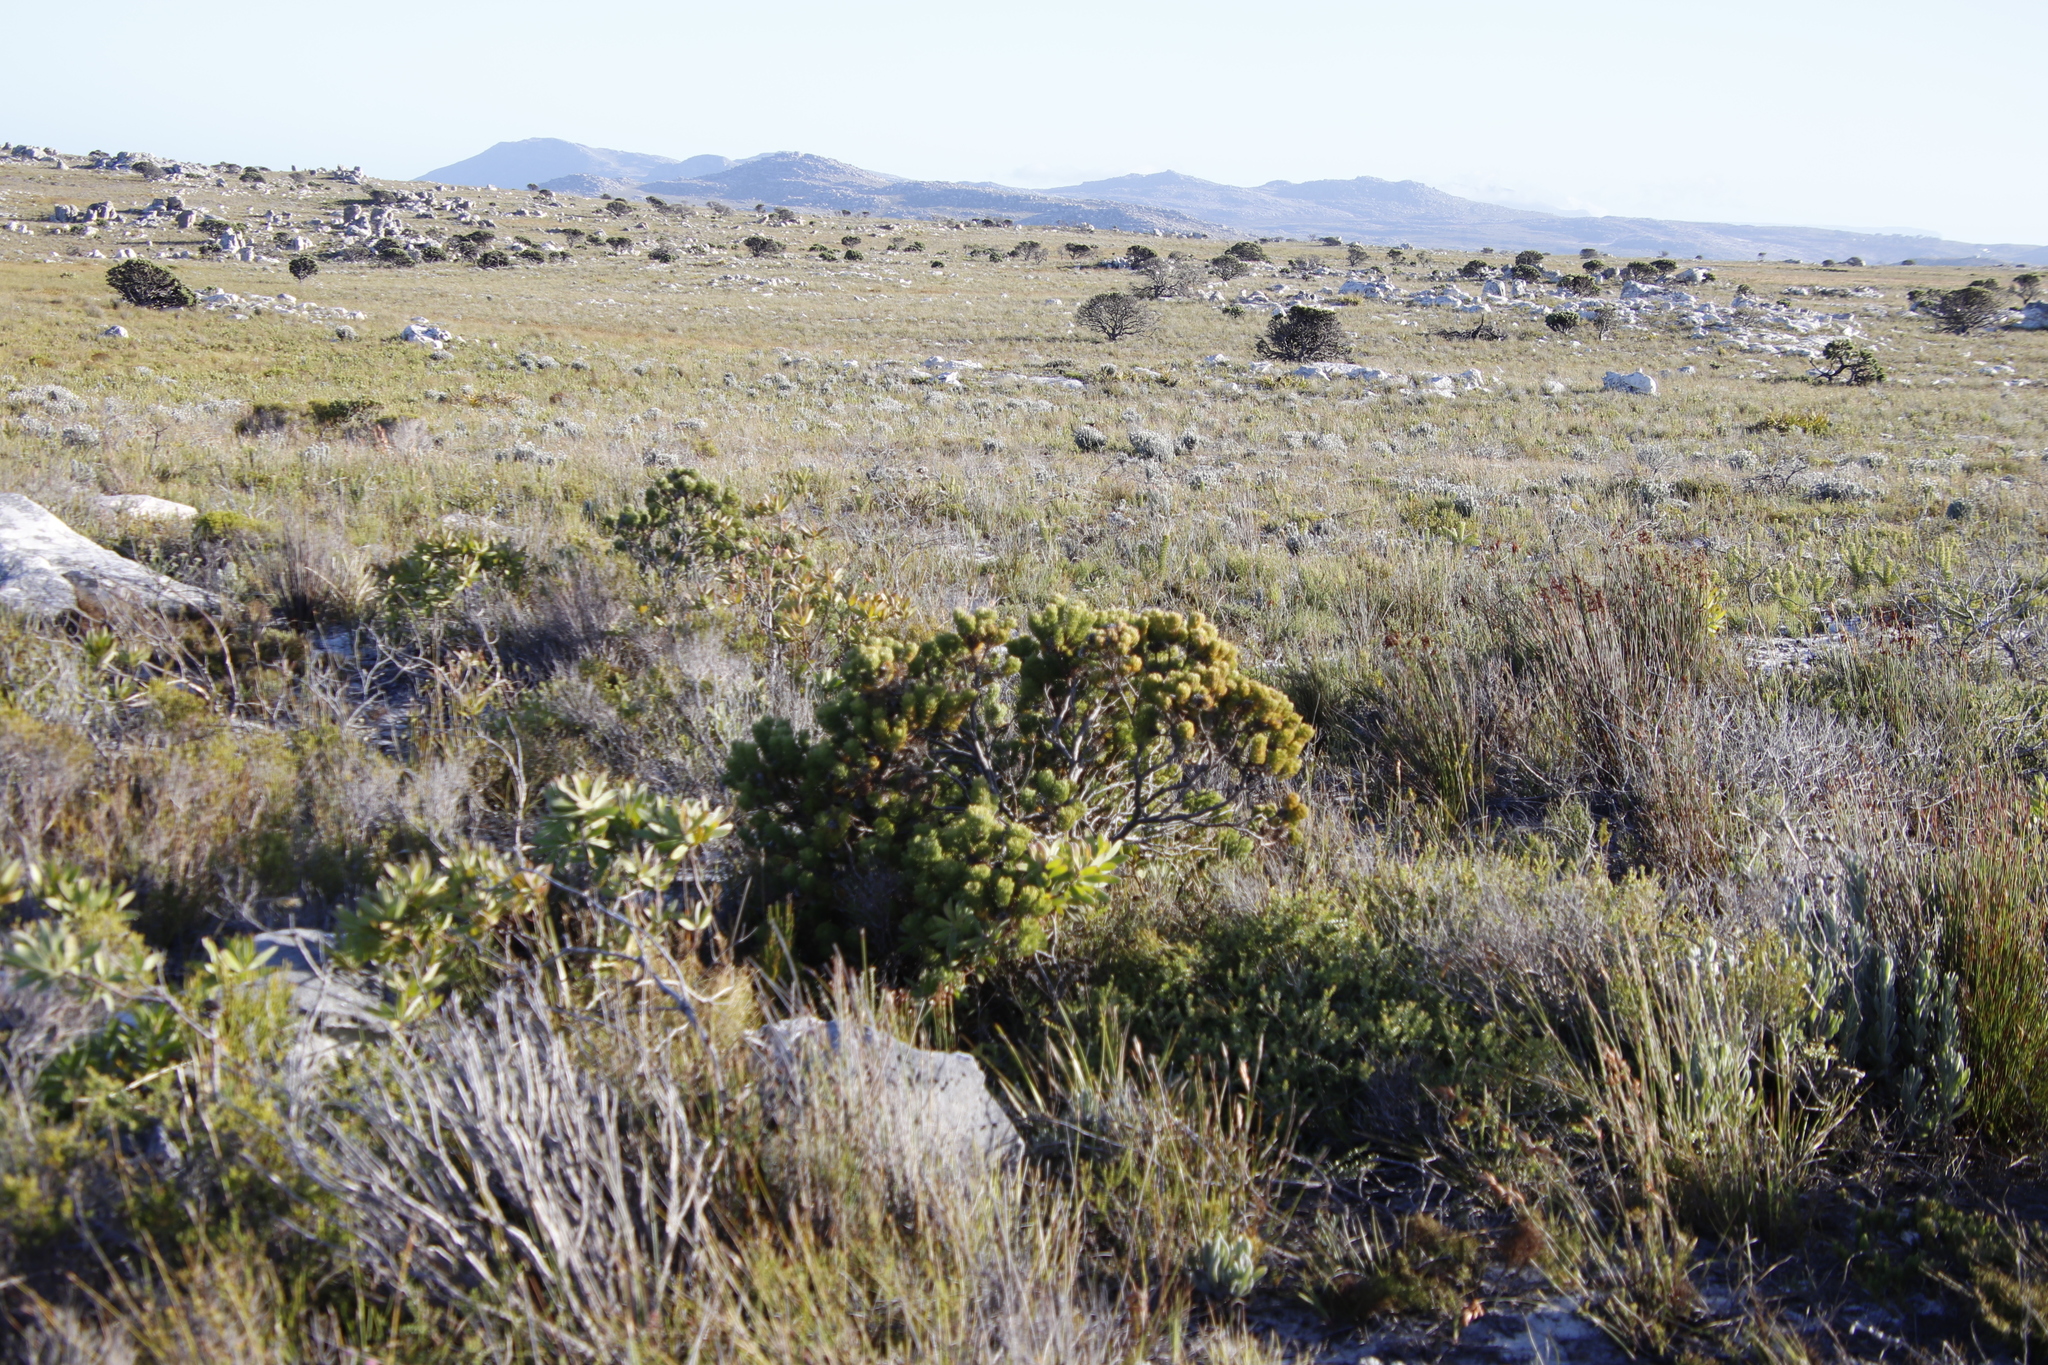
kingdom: Plantae
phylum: Tracheophyta
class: Magnoliopsida
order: Proteales
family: Proteaceae
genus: Serruria
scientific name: Serruria villosa
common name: Golden spiderhead
